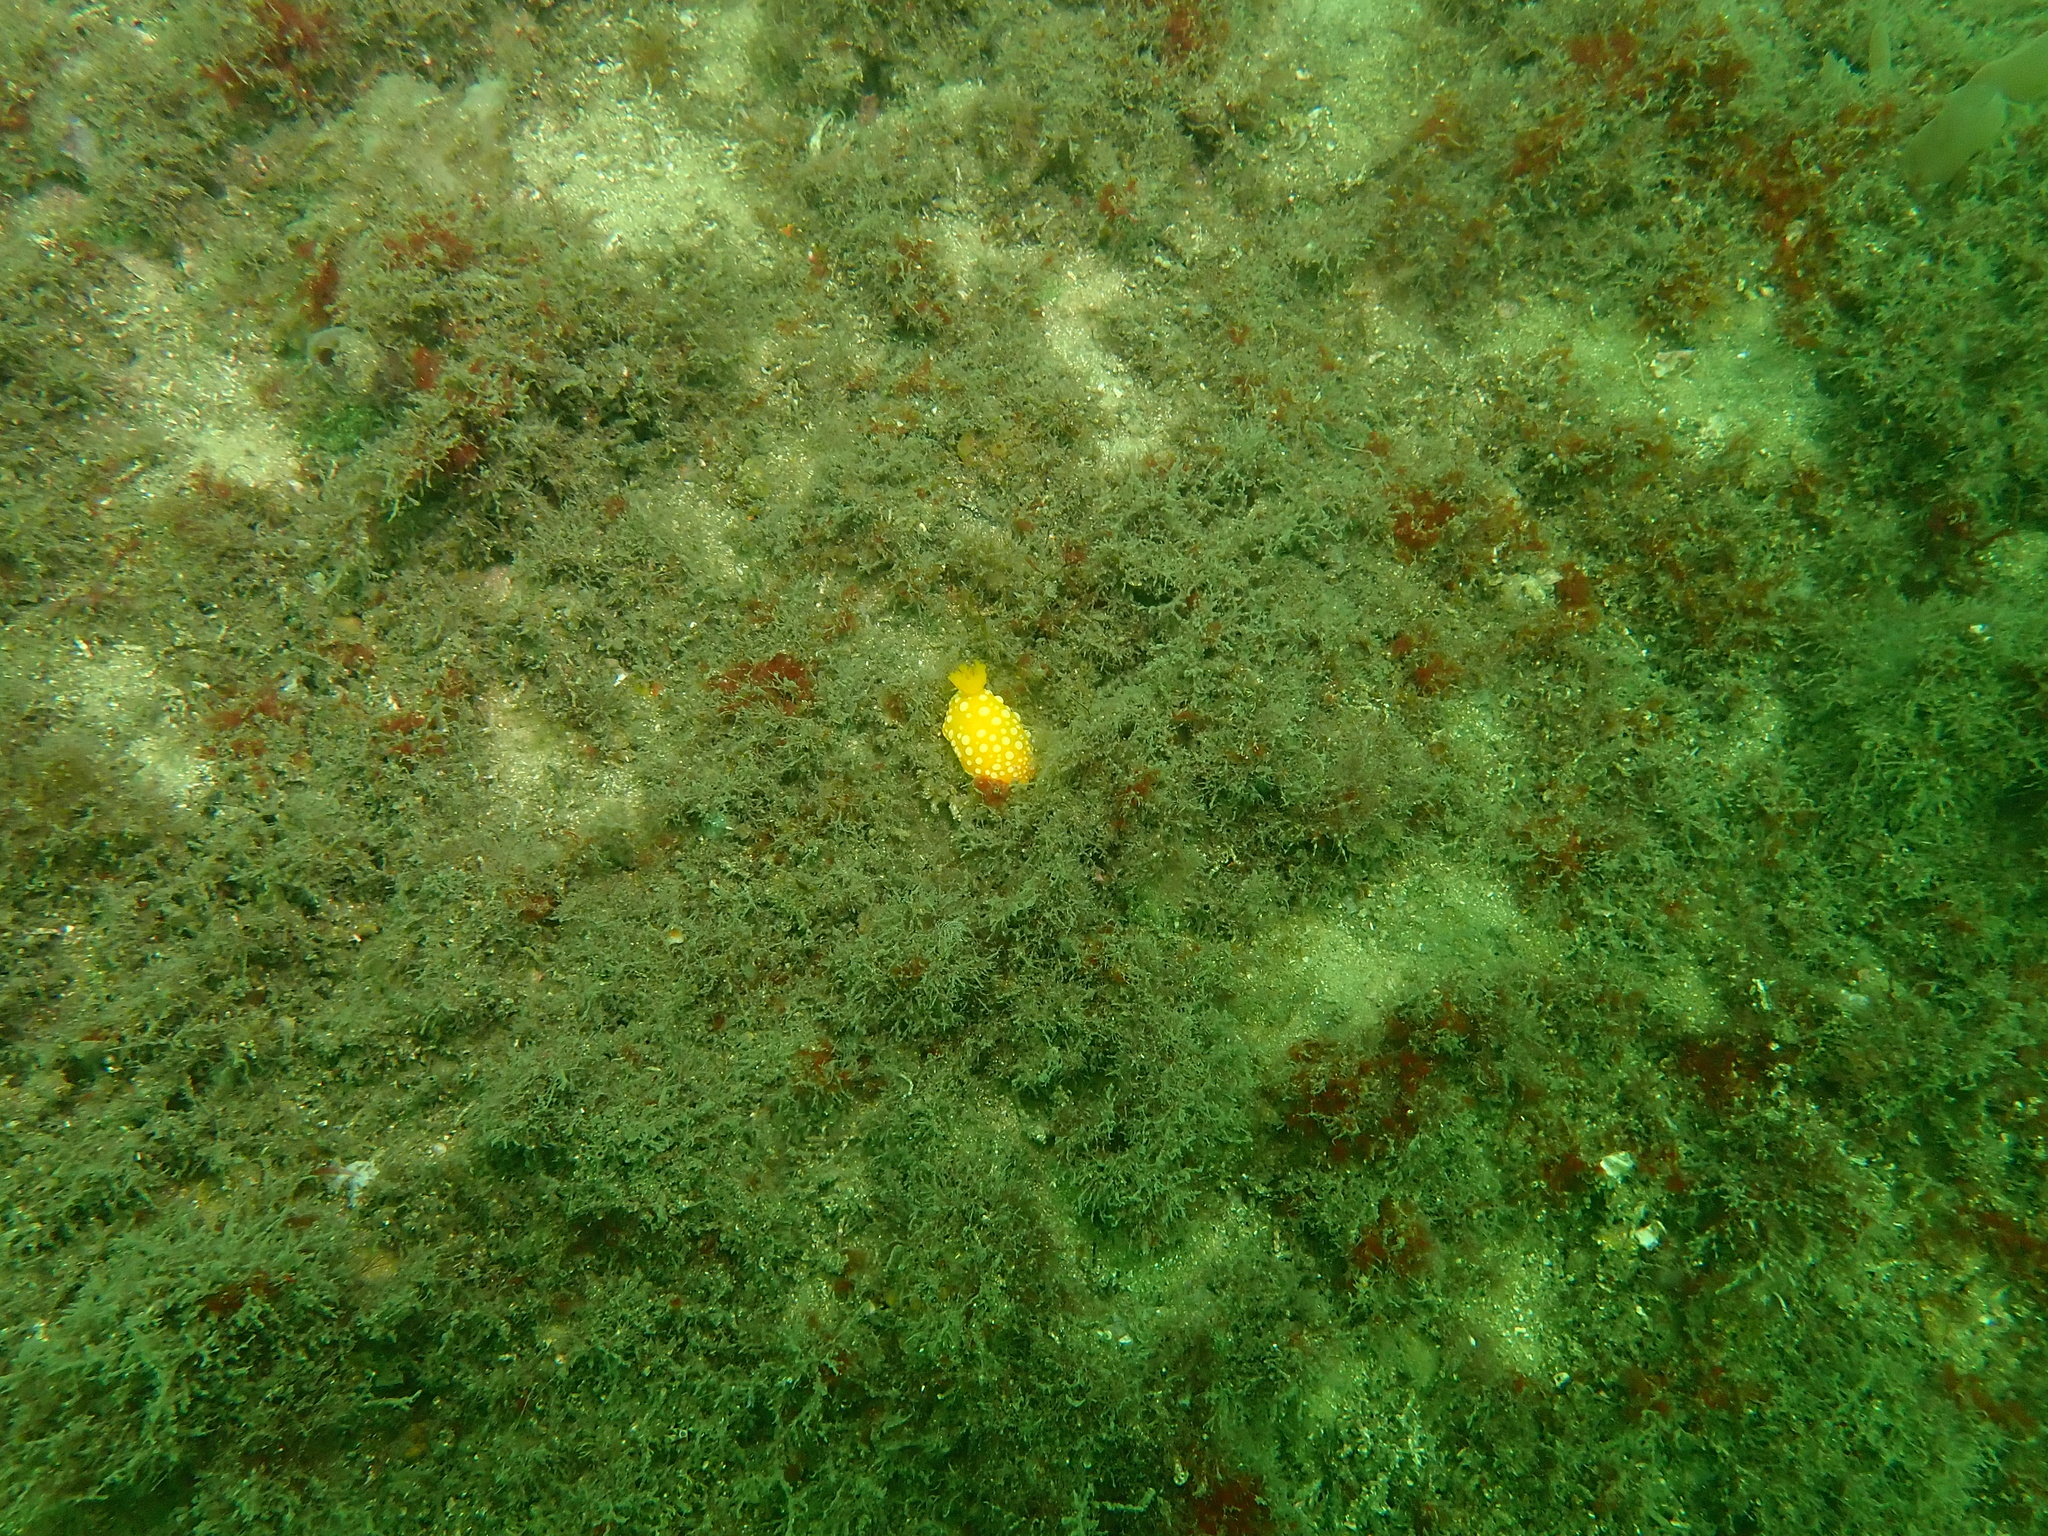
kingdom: Animalia
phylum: Mollusca
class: Gastropoda
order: Nudibranchia
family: Dorididae
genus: Doris
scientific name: Doris chrysoderma
